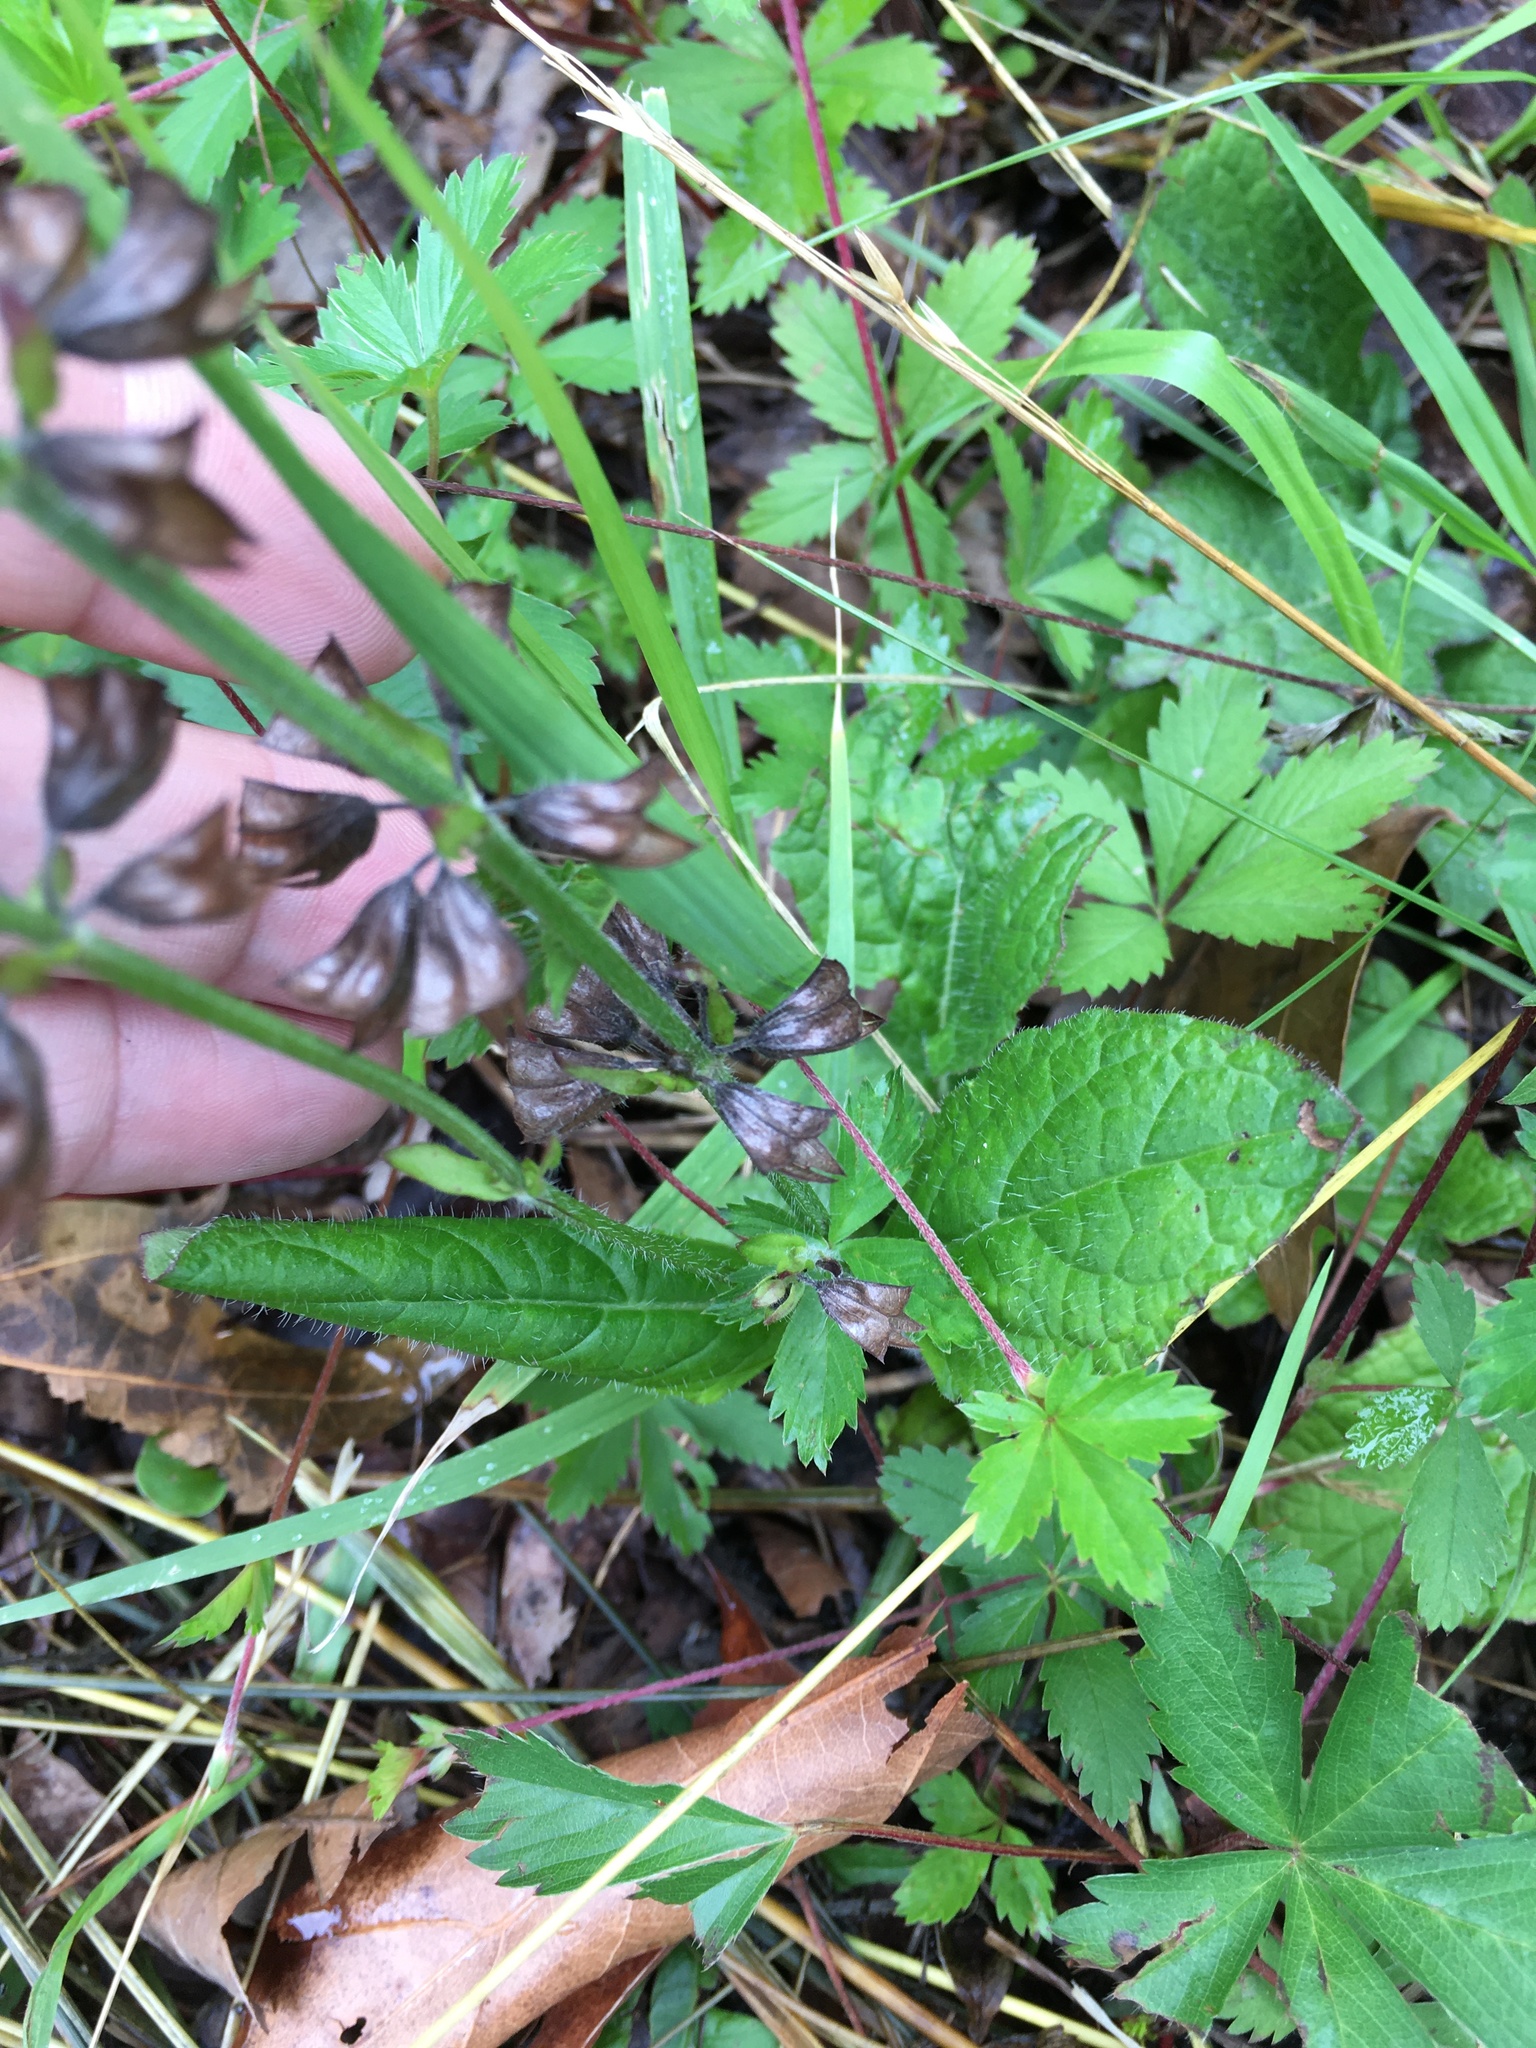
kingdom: Plantae
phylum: Tracheophyta
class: Magnoliopsida
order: Lamiales
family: Lamiaceae
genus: Salvia
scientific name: Salvia lyrata
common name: Cancerweed
